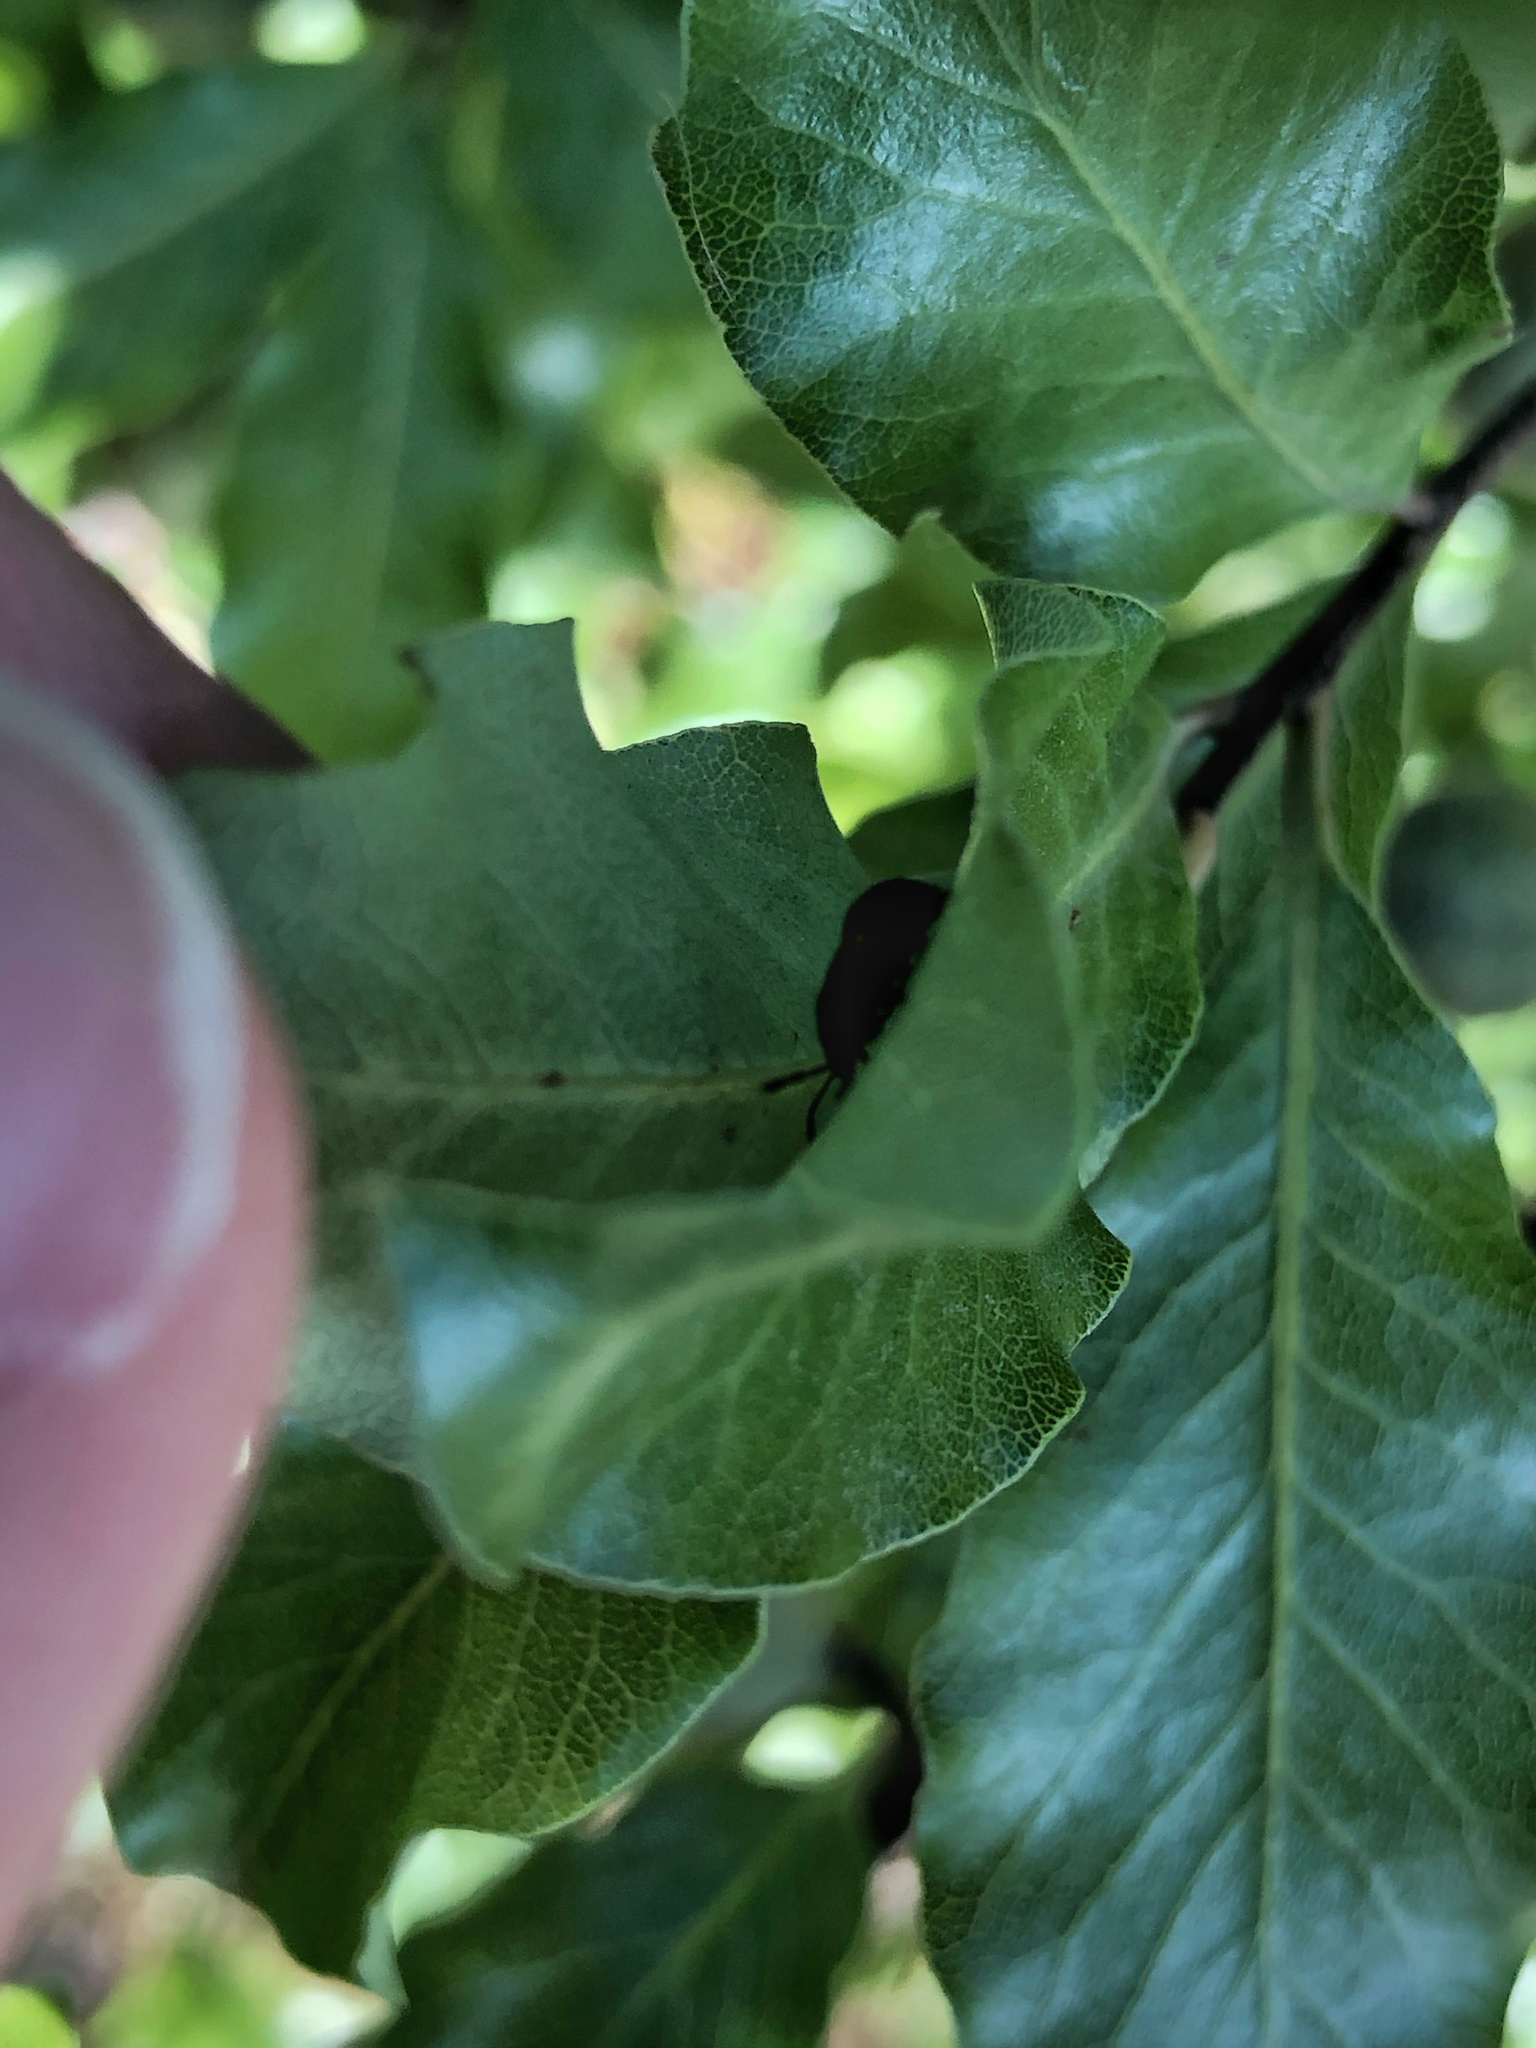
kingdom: Animalia
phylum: Arthropoda
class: Insecta
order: Hemiptera
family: Pentatomidae
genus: Monteithiella
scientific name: Monteithiella
